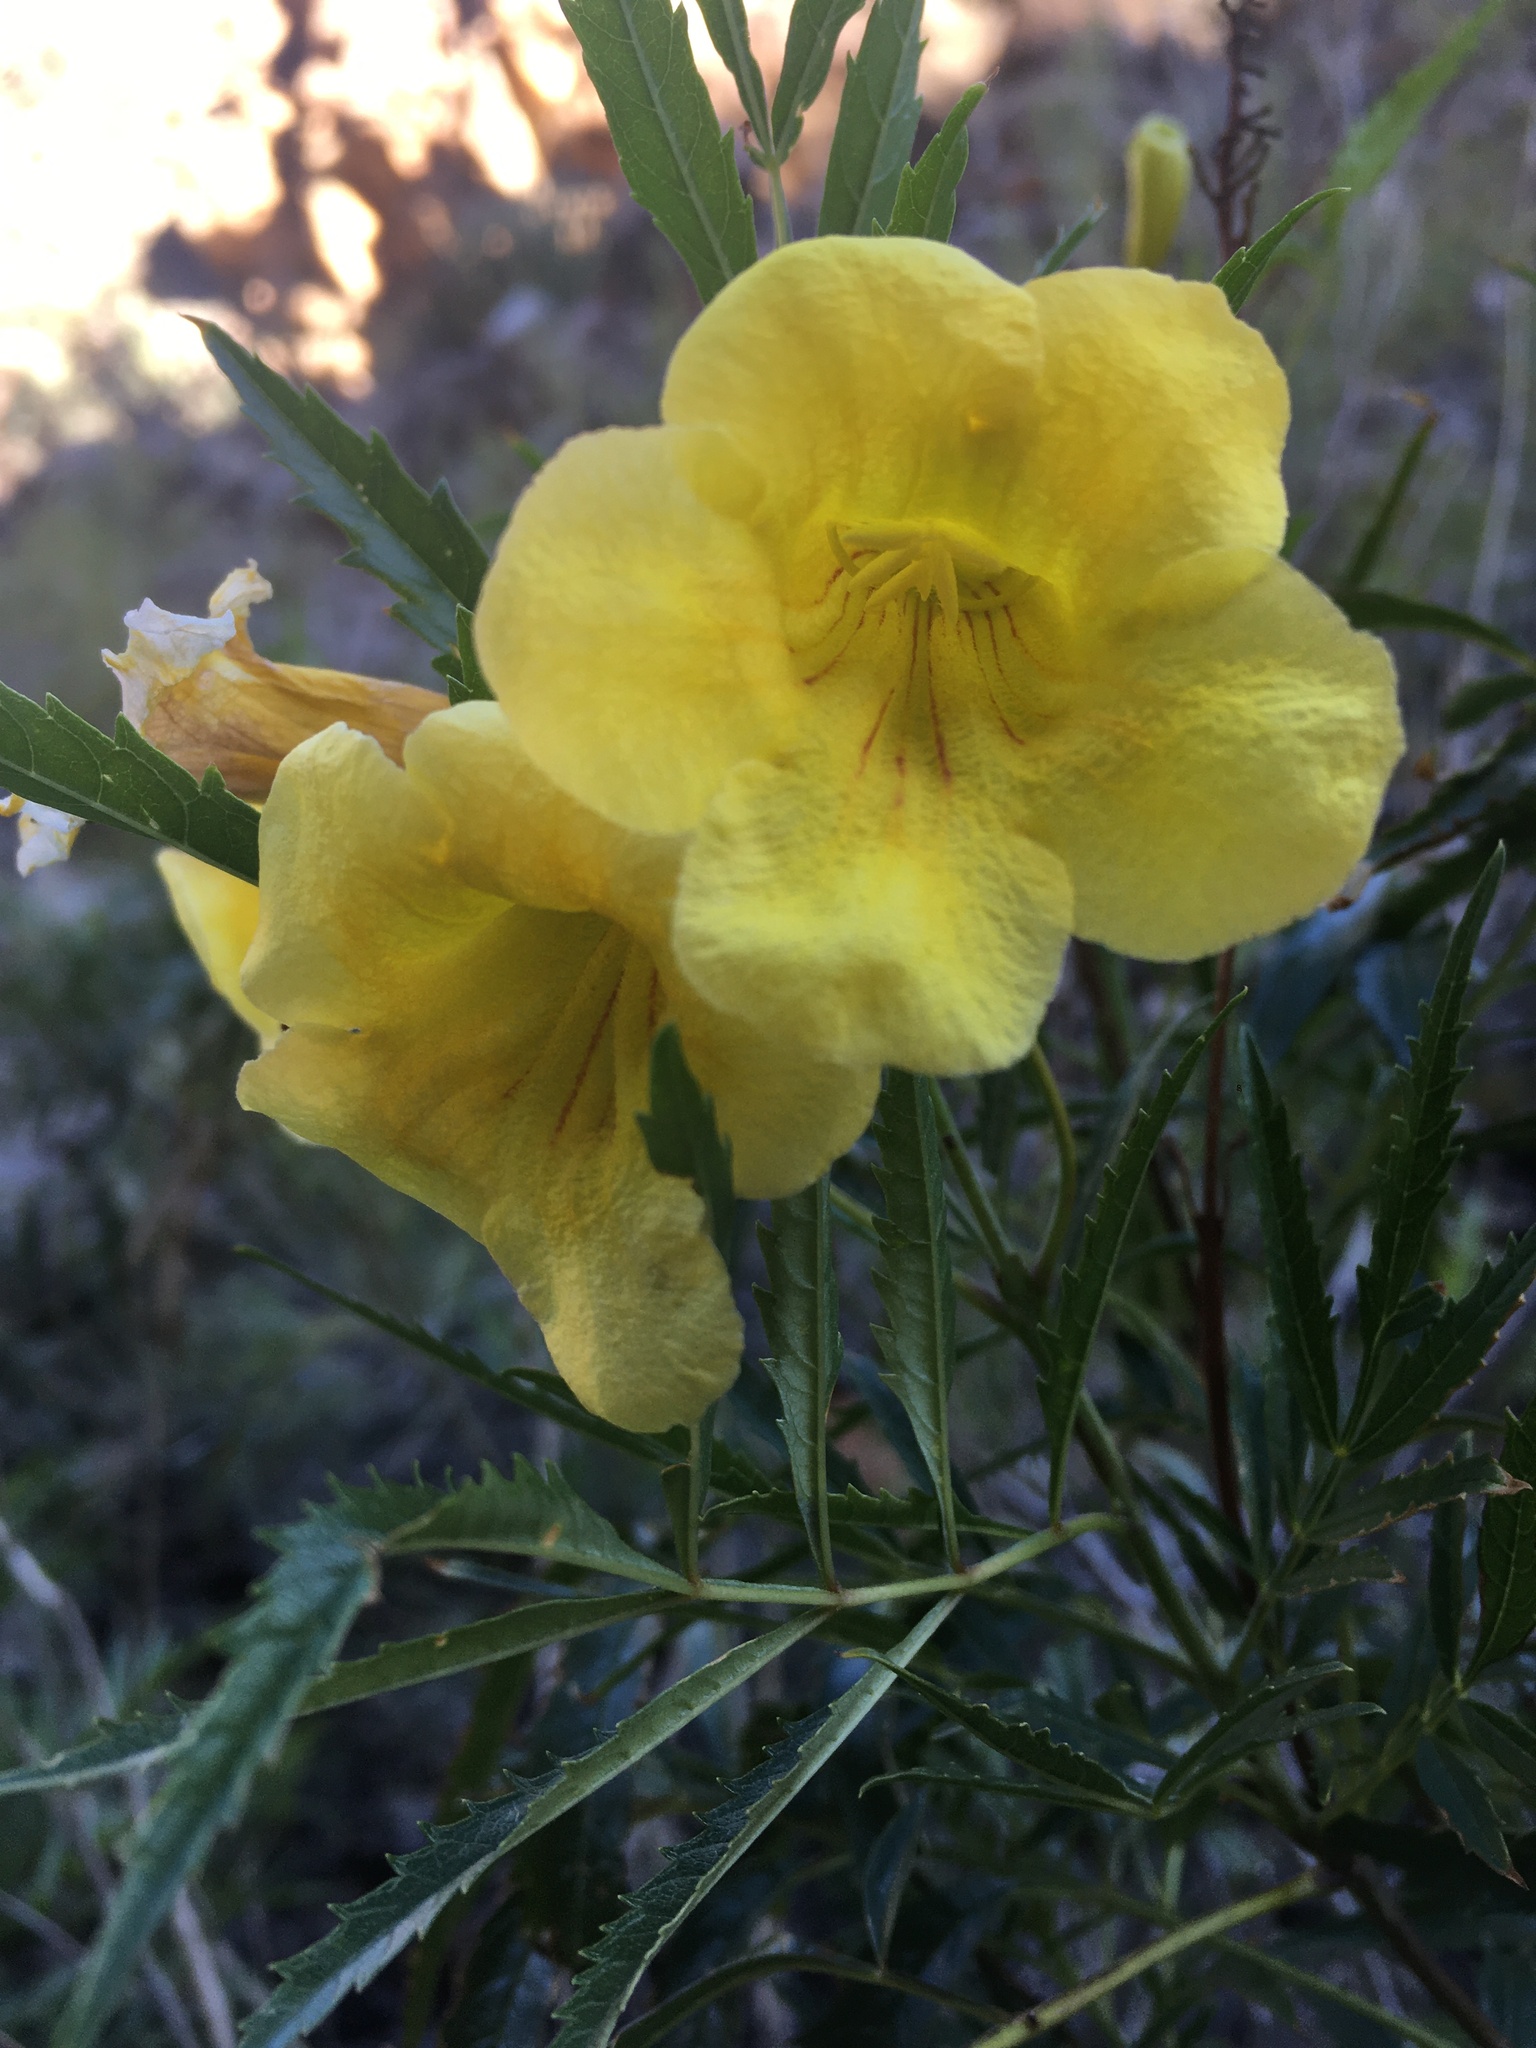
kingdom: Plantae
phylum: Tracheophyta
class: Magnoliopsida
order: Lamiales
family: Bignoniaceae
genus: Tecoma
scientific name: Tecoma stans
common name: Yellow trumpetbush
